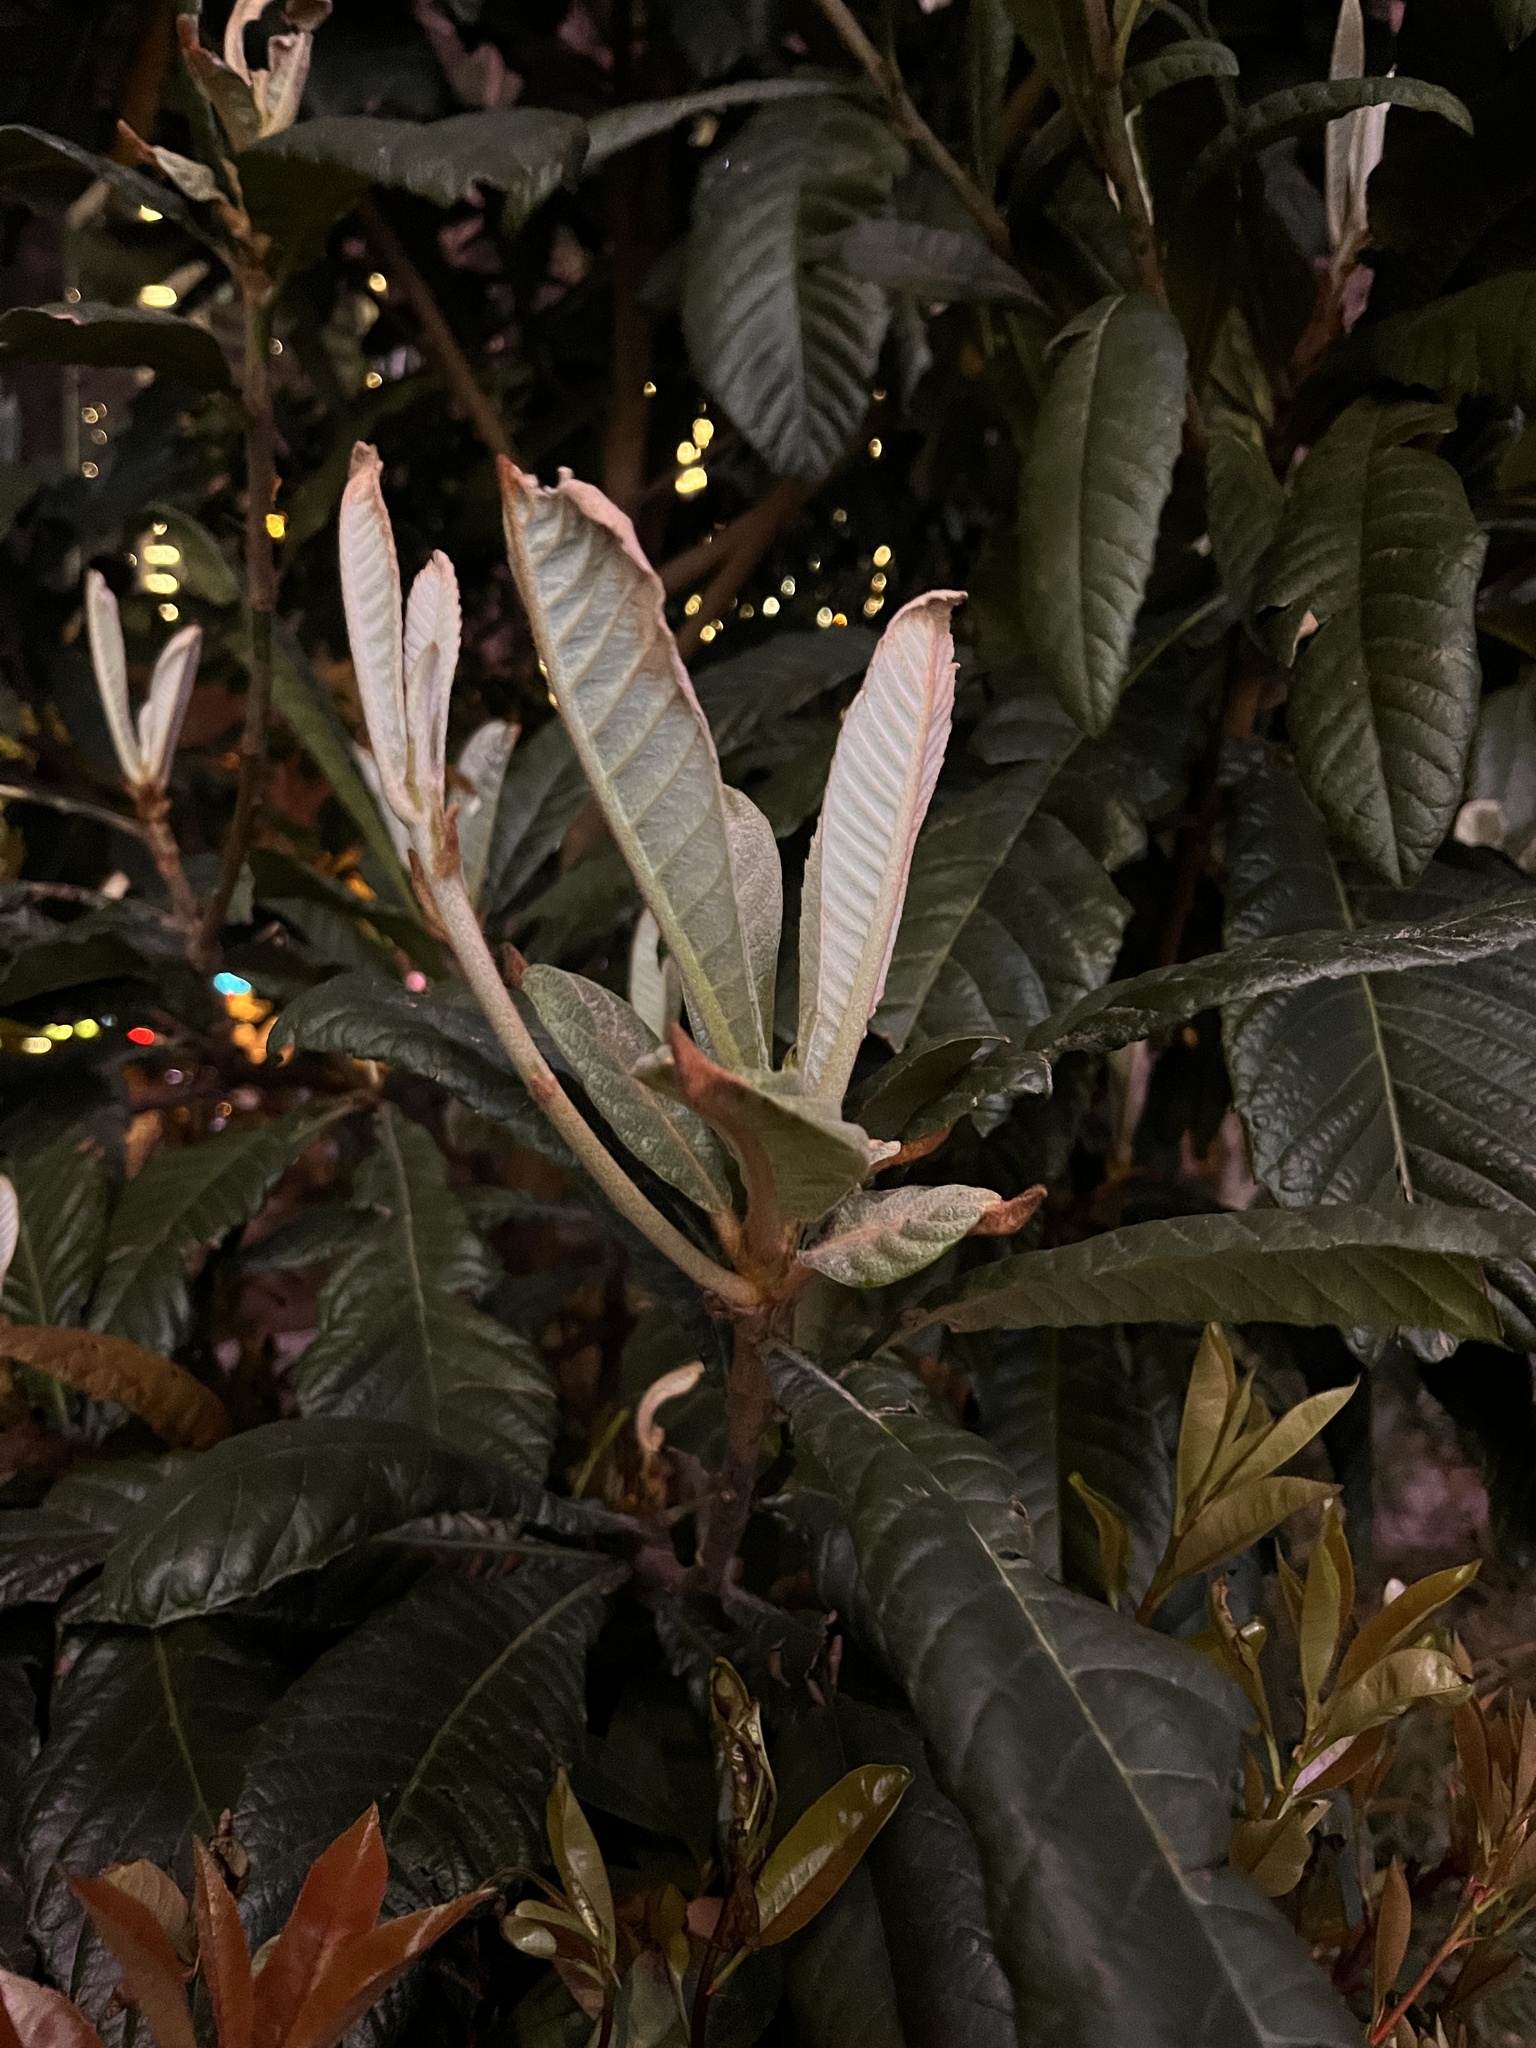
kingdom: Plantae
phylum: Tracheophyta
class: Magnoliopsida
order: Rosales
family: Rosaceae
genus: Rhaphiolepis
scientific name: Rhaphiolepis bibas
